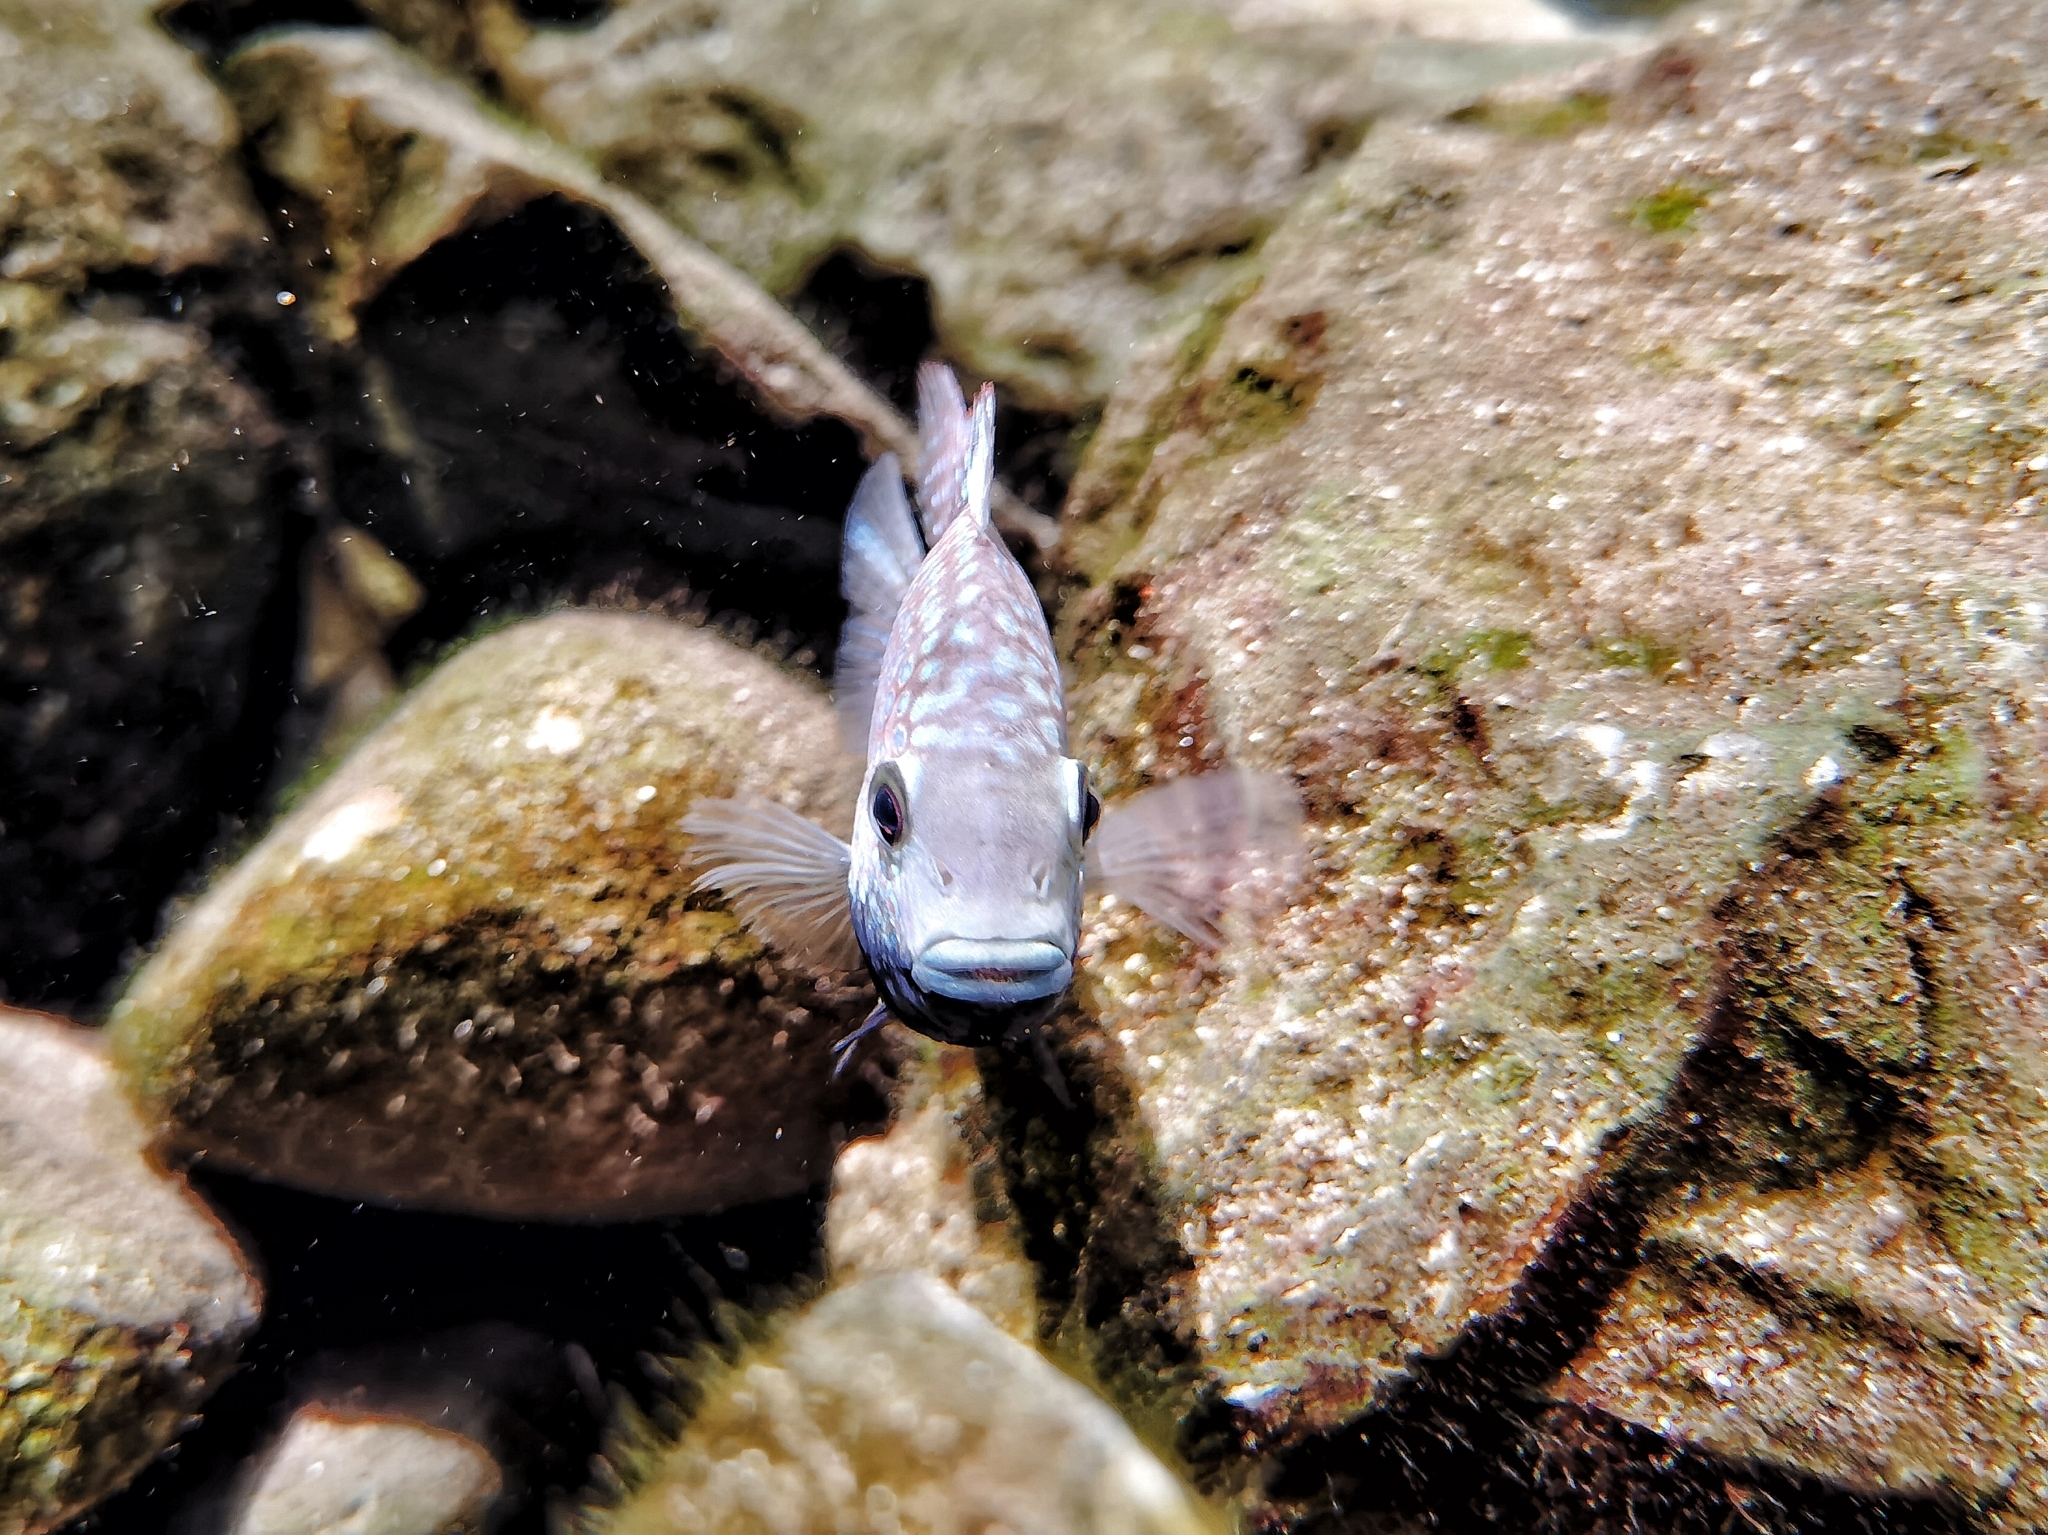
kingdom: Animalia
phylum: Chordata
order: Perciformes
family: Cichlidae
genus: Herichthys
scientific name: Herichthys carpintis
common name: Lowland cichlid
